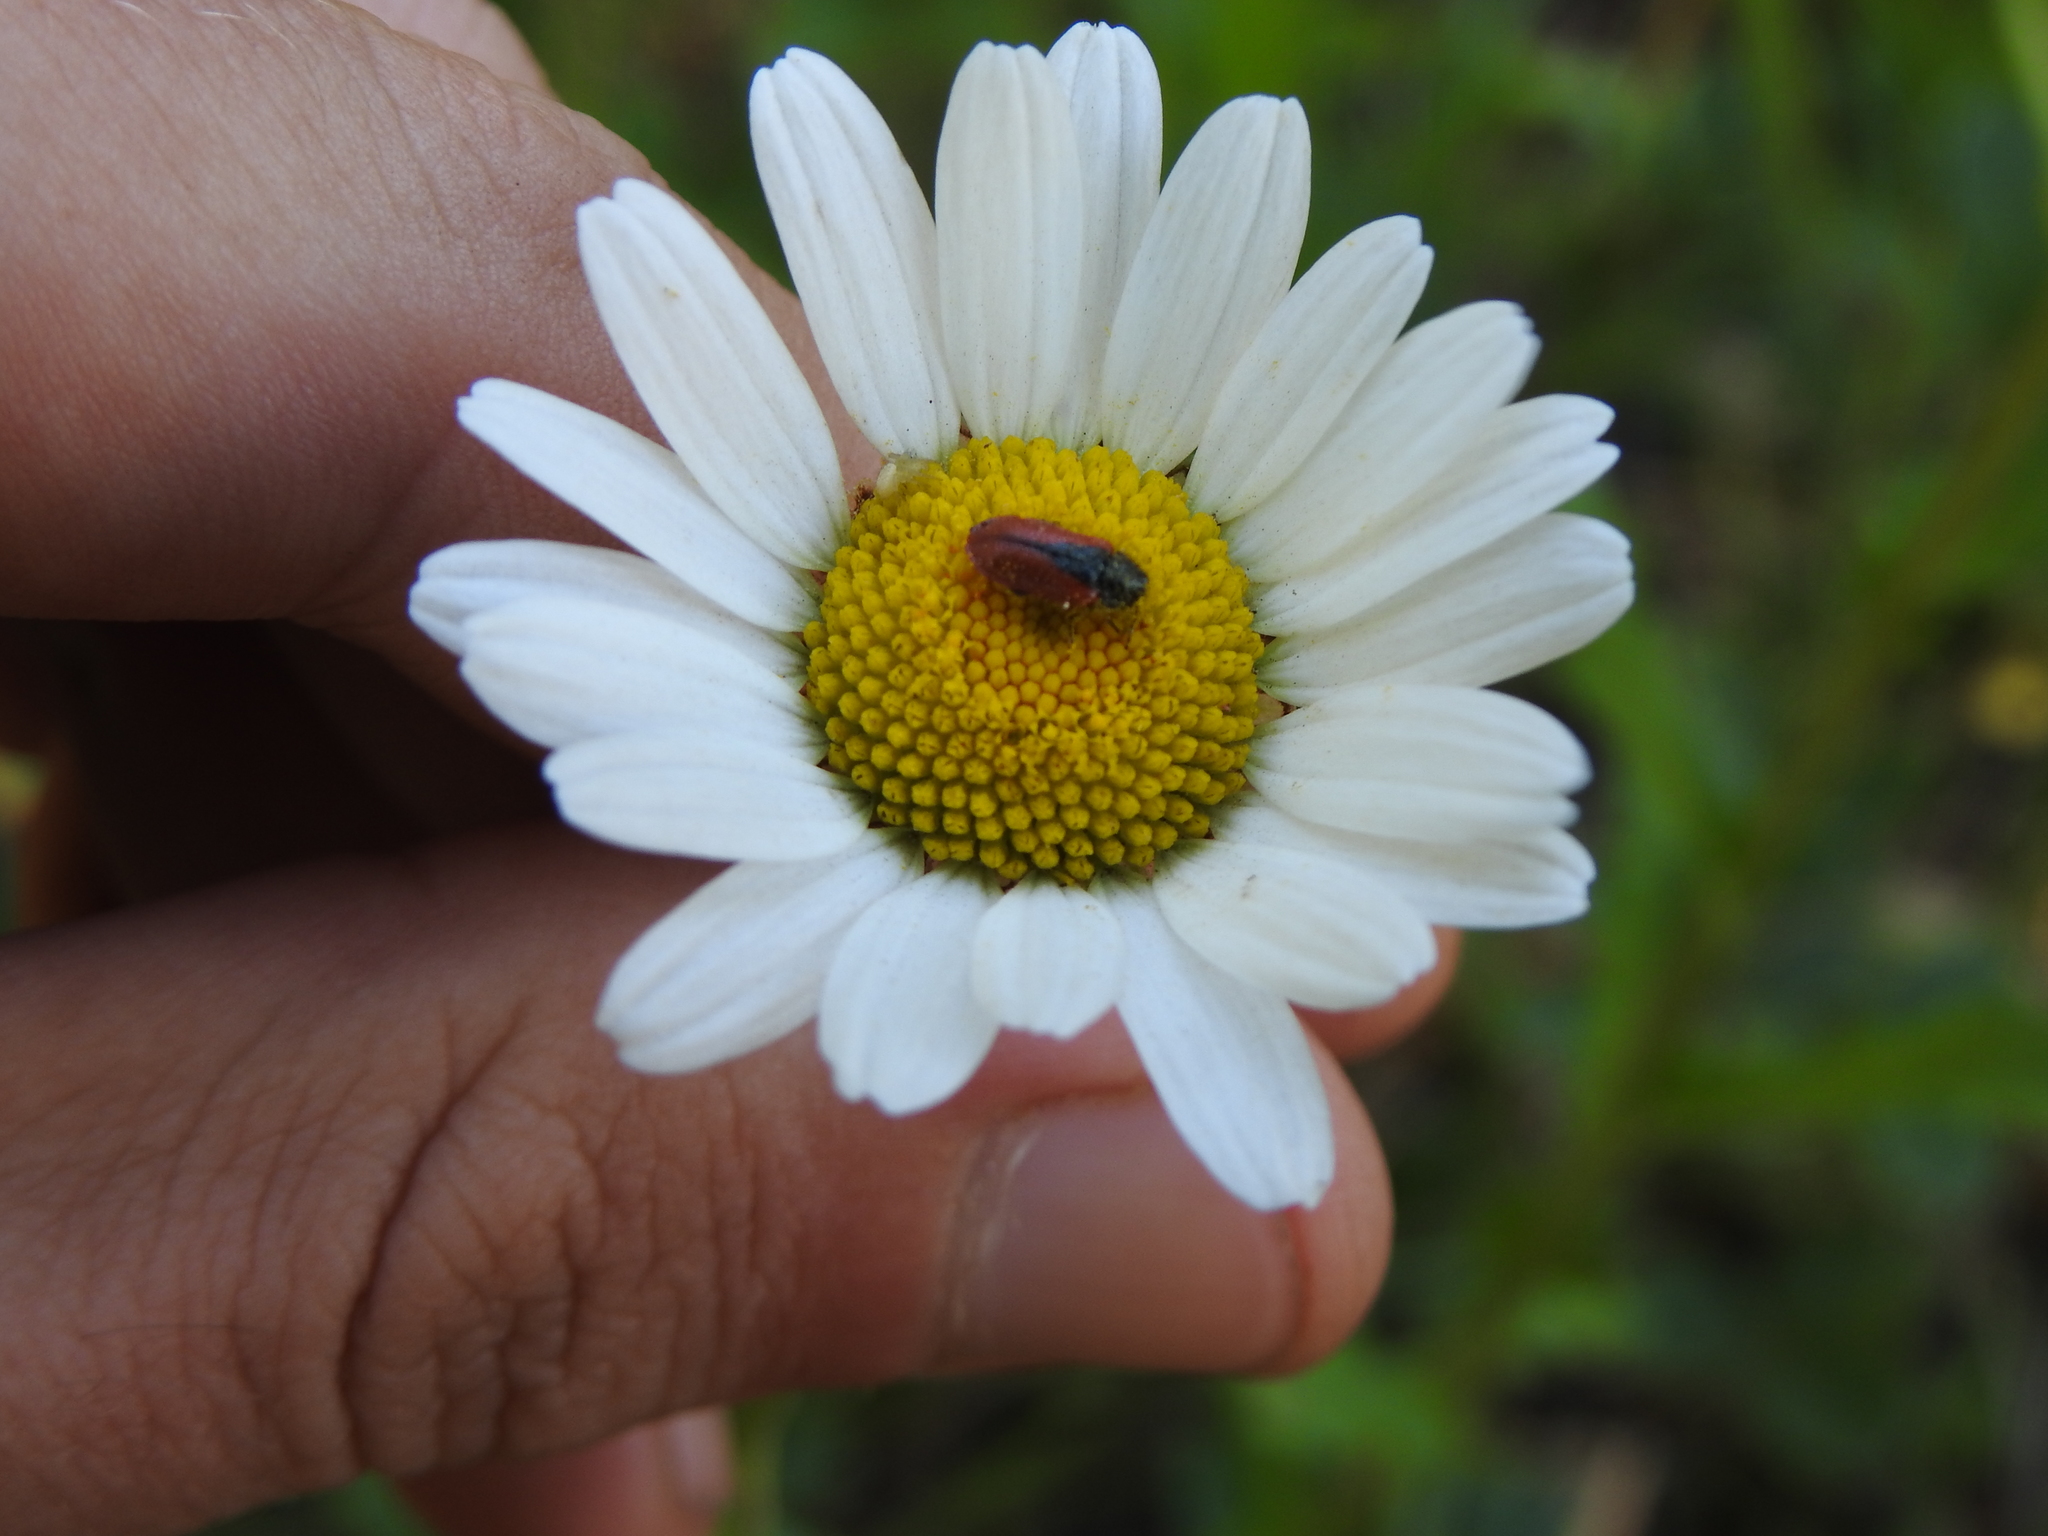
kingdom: Animalia
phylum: Arthropoda
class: Insecta
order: Coleoptera
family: Melyridae
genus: Arthrobrachus
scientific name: Arthrobrachus nigromaculatus
